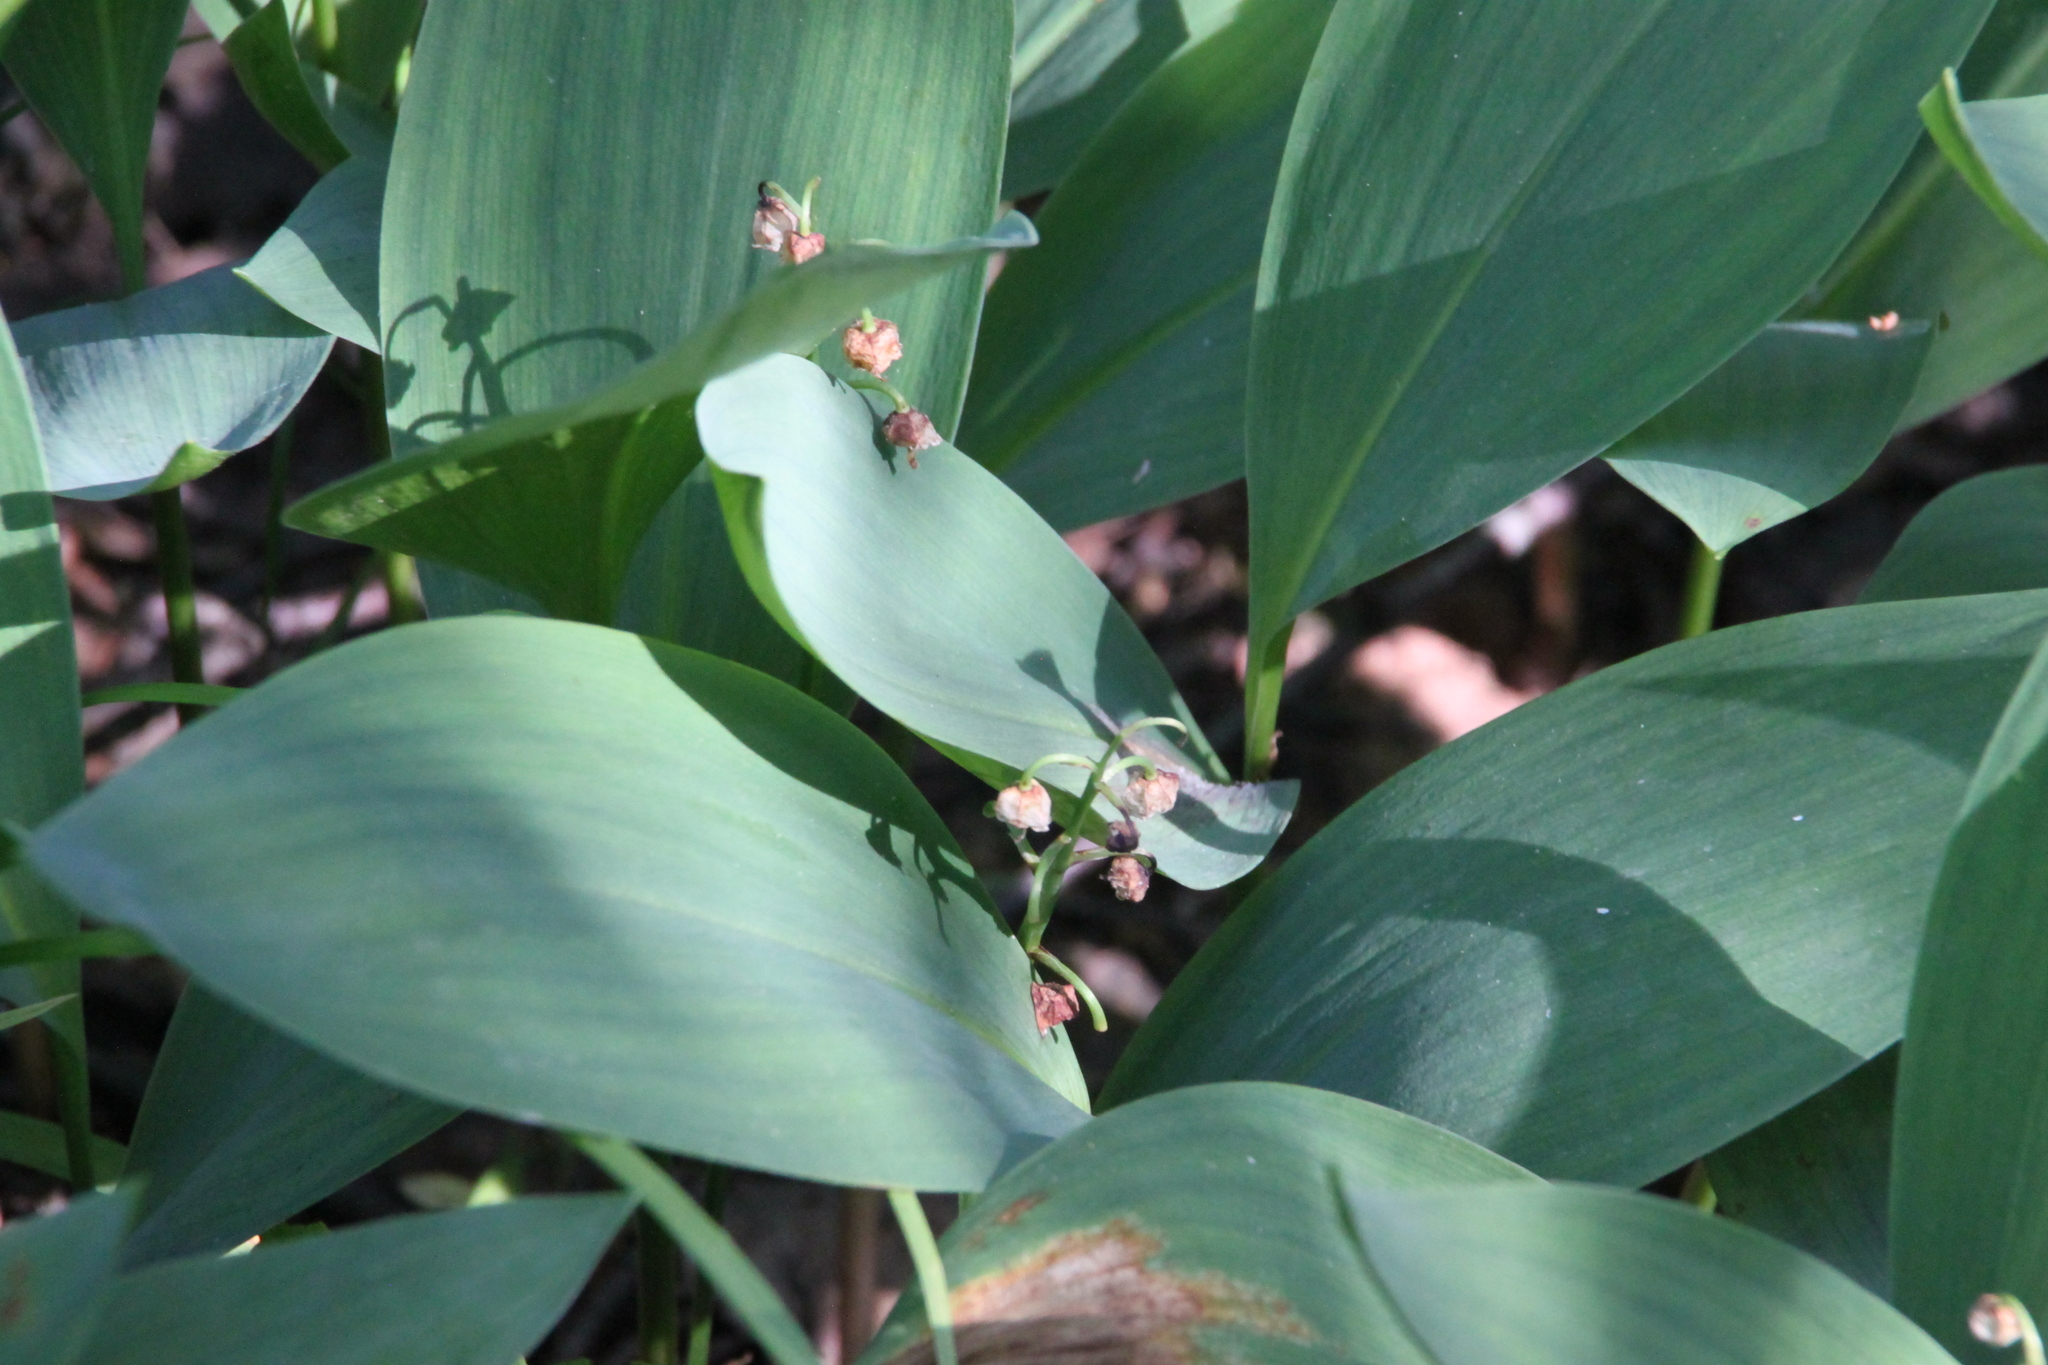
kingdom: Plantae
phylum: Tracheophyta
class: Liliopsida
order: Asparagales
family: Asparagaceae
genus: Convallaria
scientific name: Convallaria majalis
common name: Lily-of-the-valley
